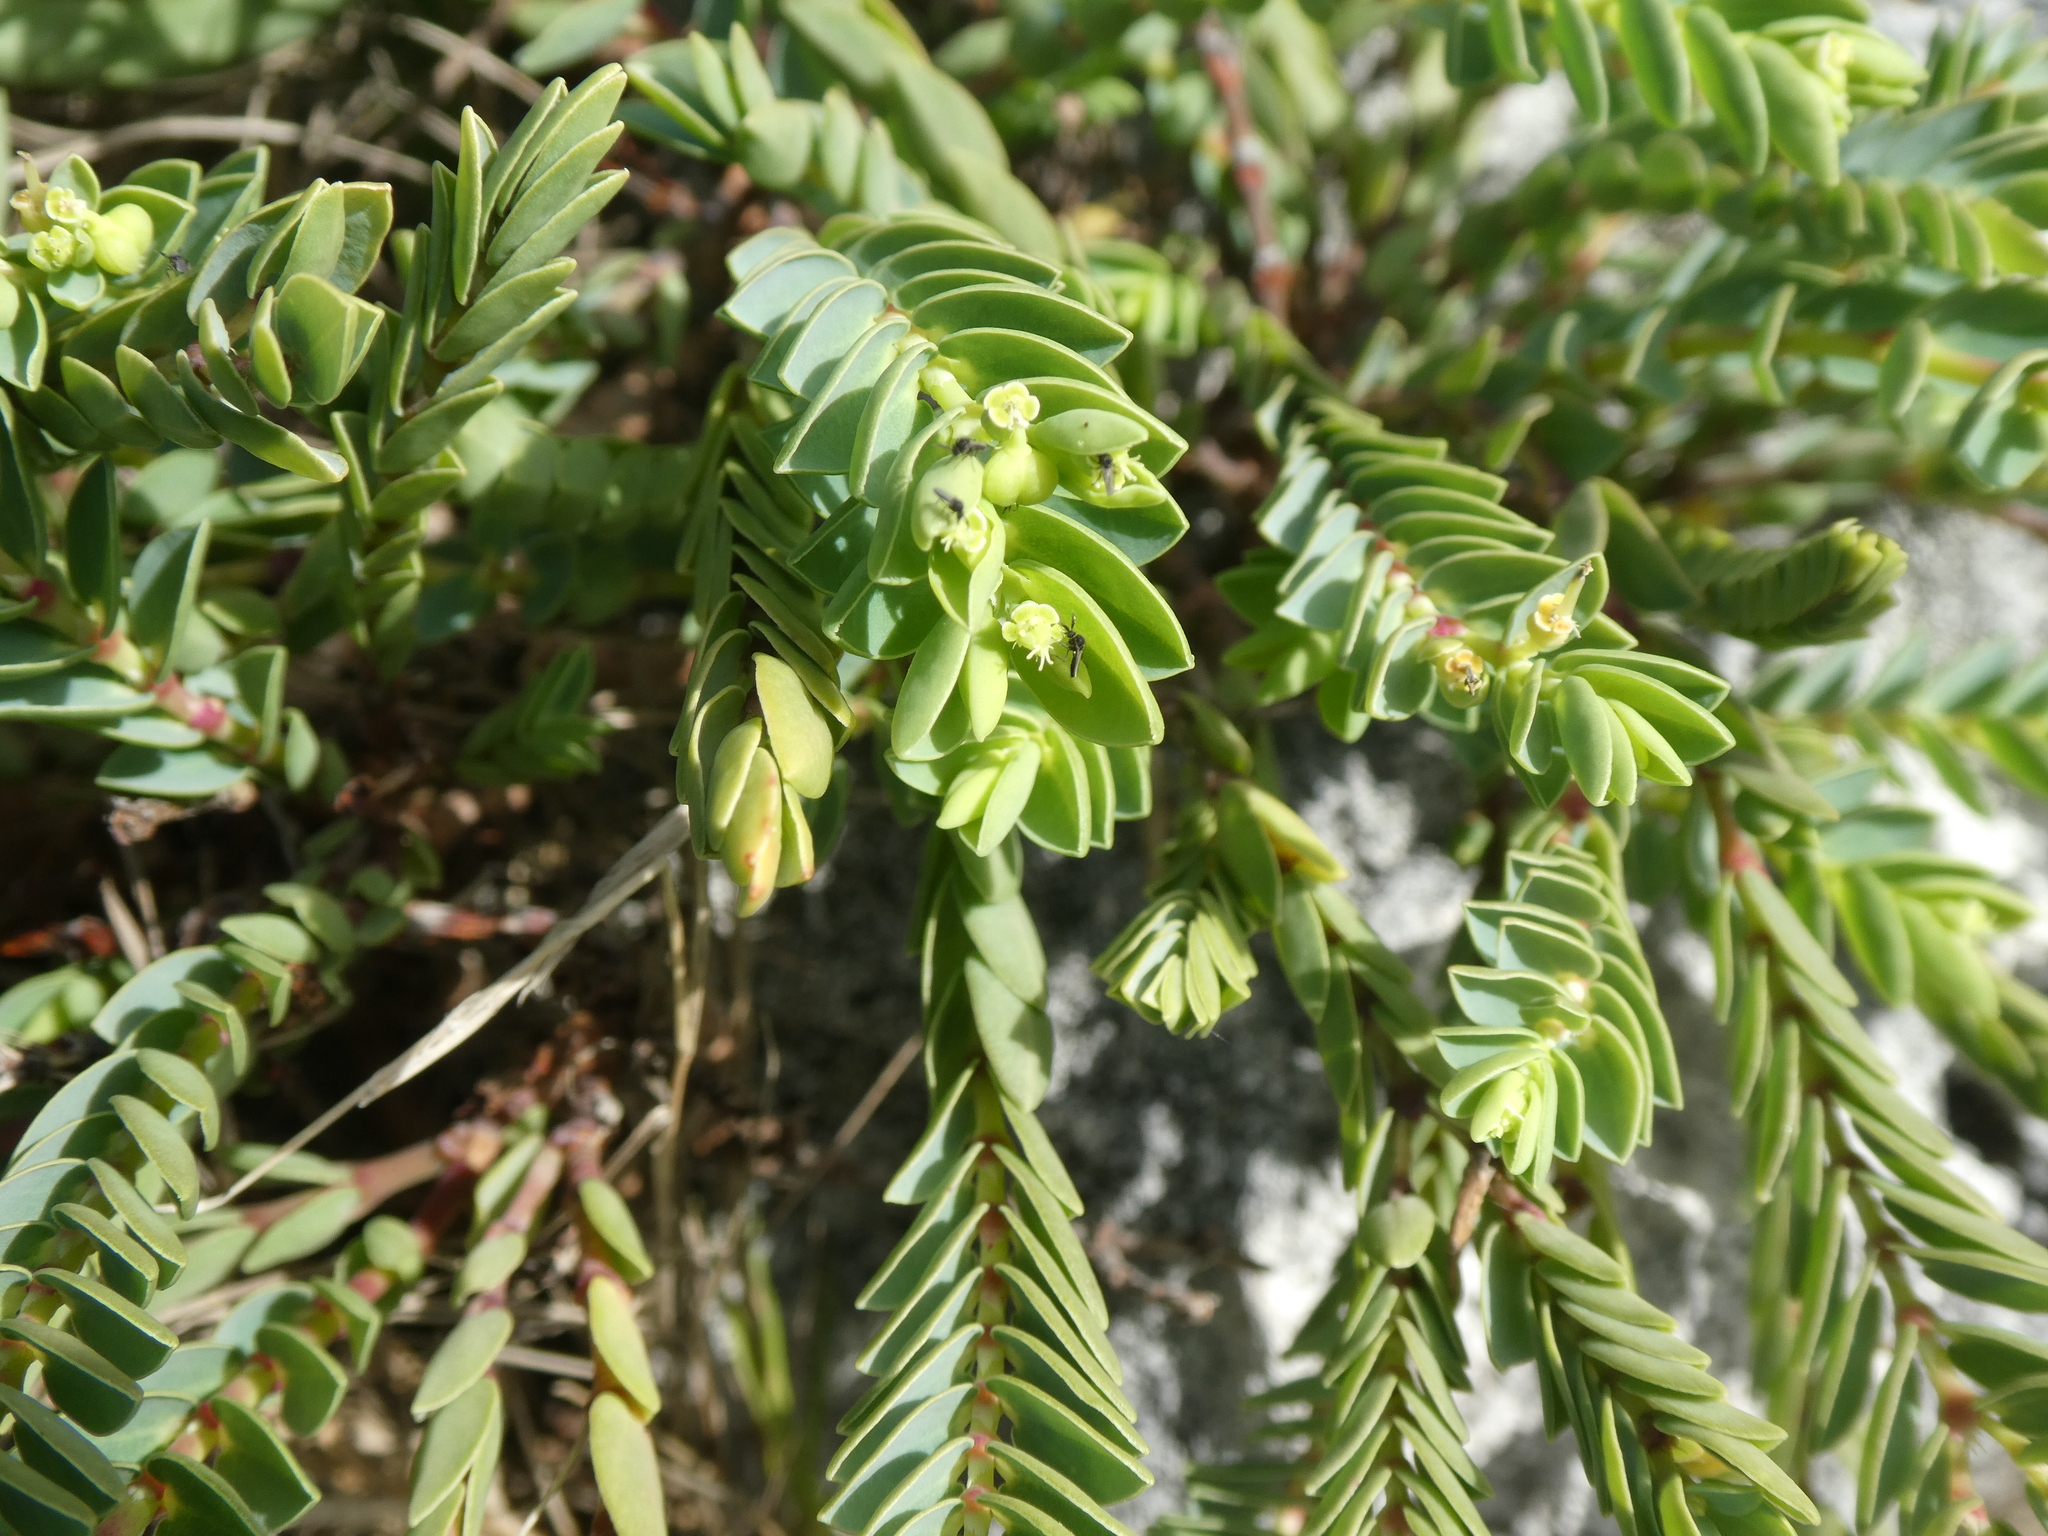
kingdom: Plantae
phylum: Tracheophyta
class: Magnoliopsida
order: Malpighiales
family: Euphorbiaceae
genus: Euphorbia
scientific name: Euphorbia mesembryanthemifolia
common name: Coastal beach sandmat
